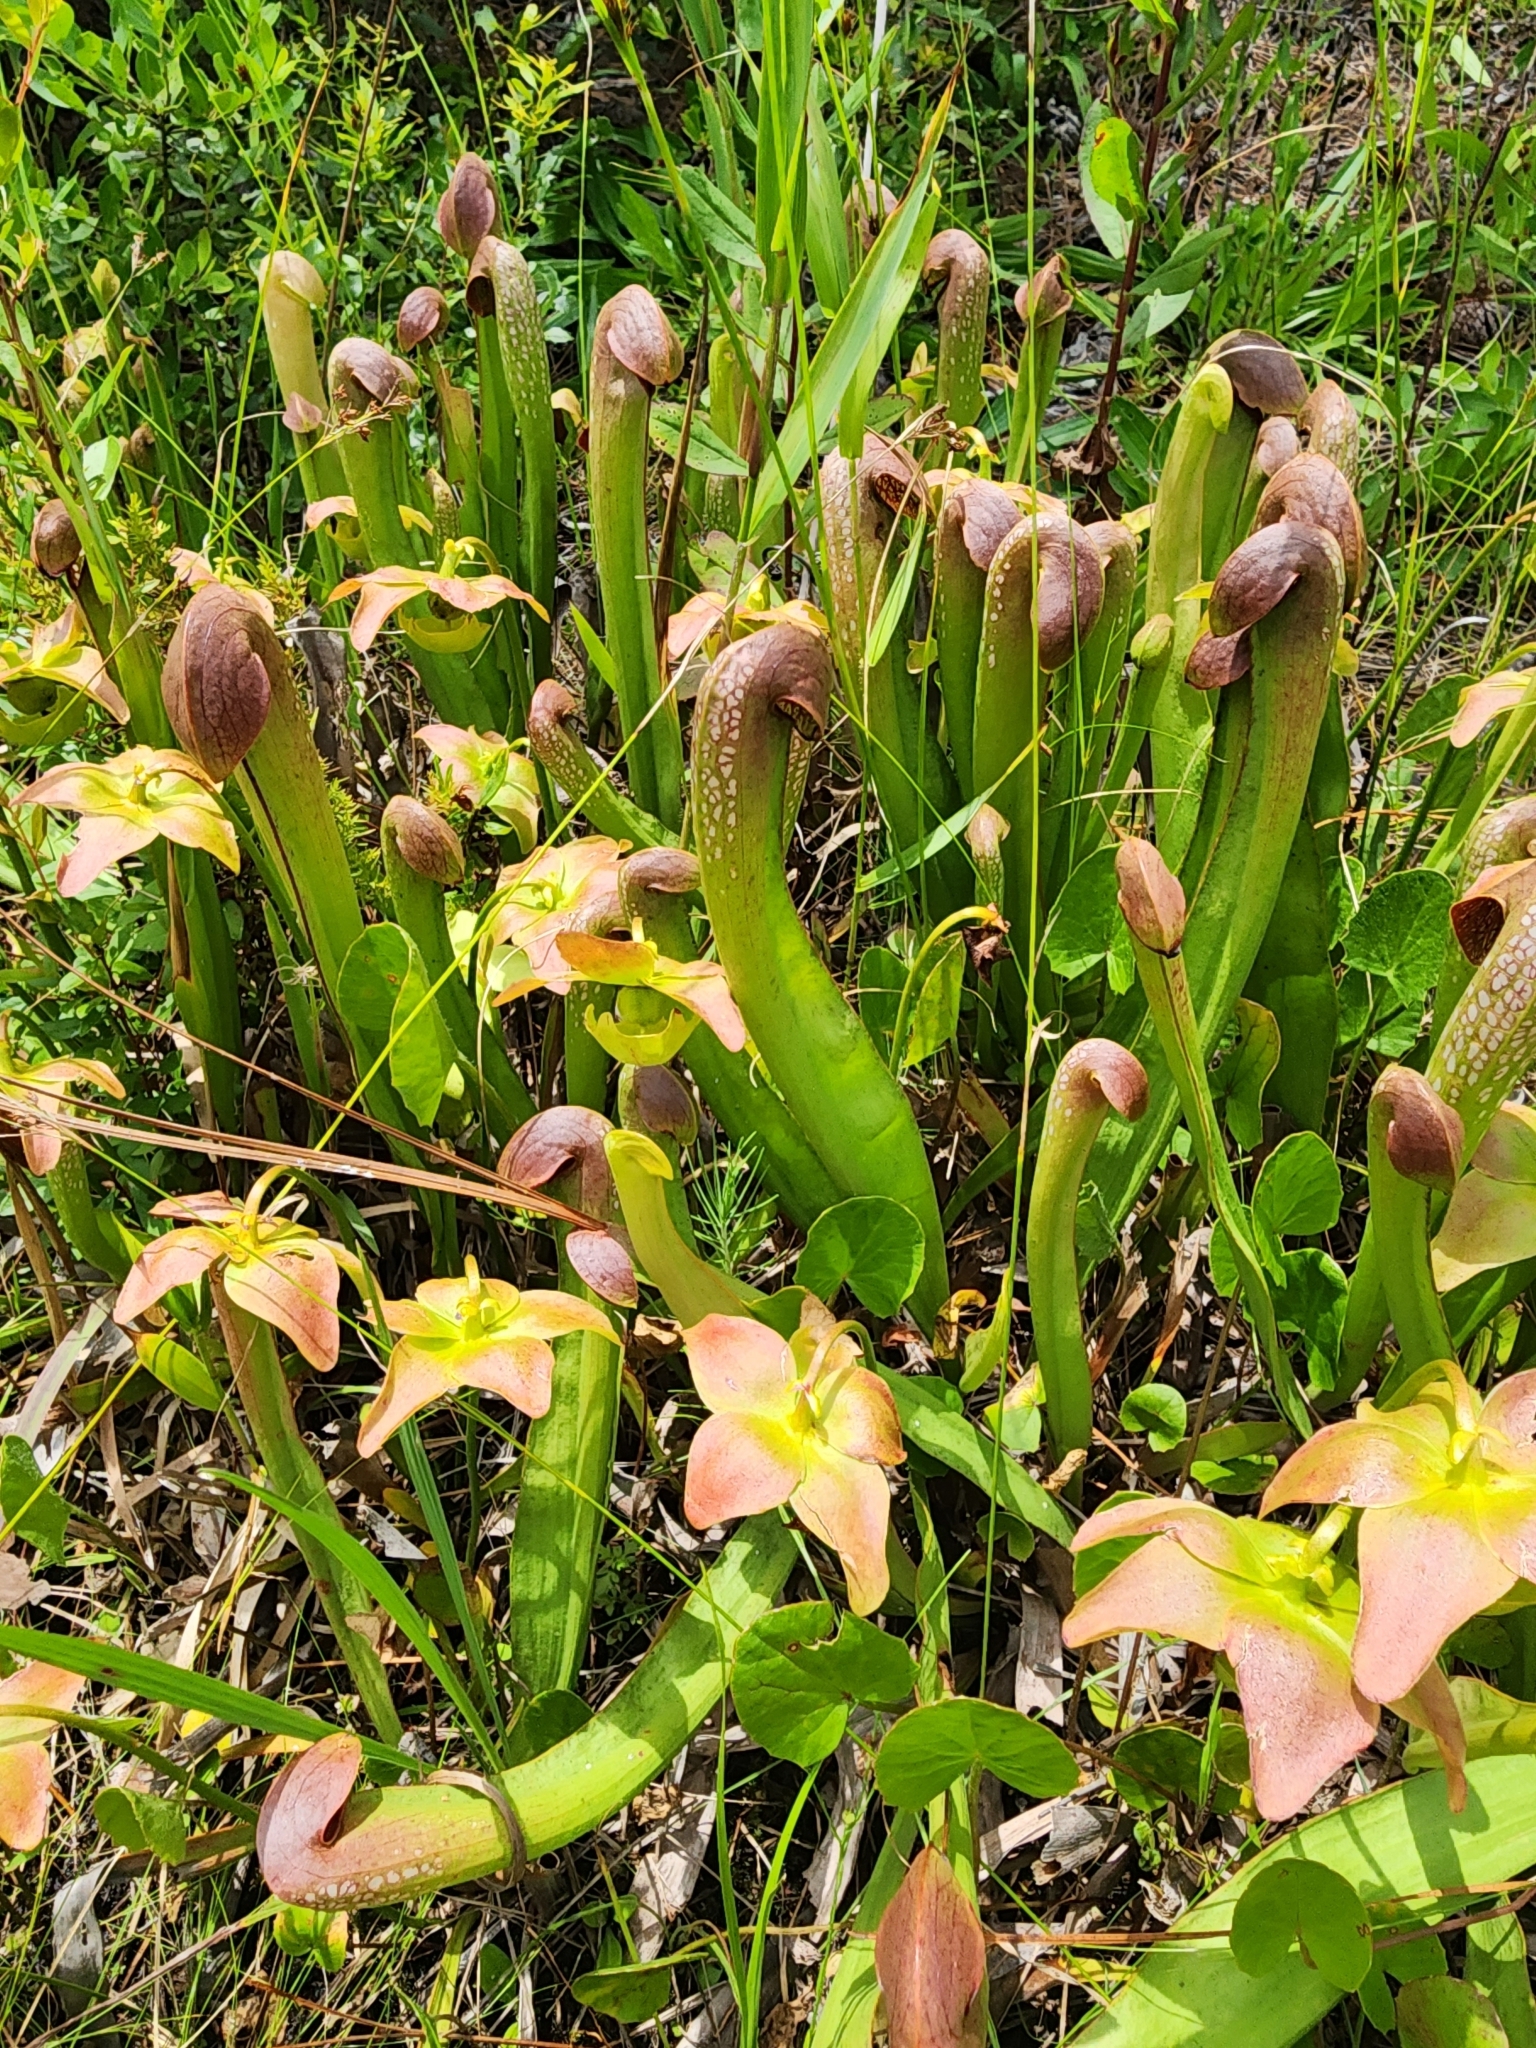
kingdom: Plantae
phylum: Tracheophyta
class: Magnoliopsida
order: Ericales
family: Sarraceniaceae
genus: Sarracenia
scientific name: Sarracenia minor
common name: Rainhat-trumpet
